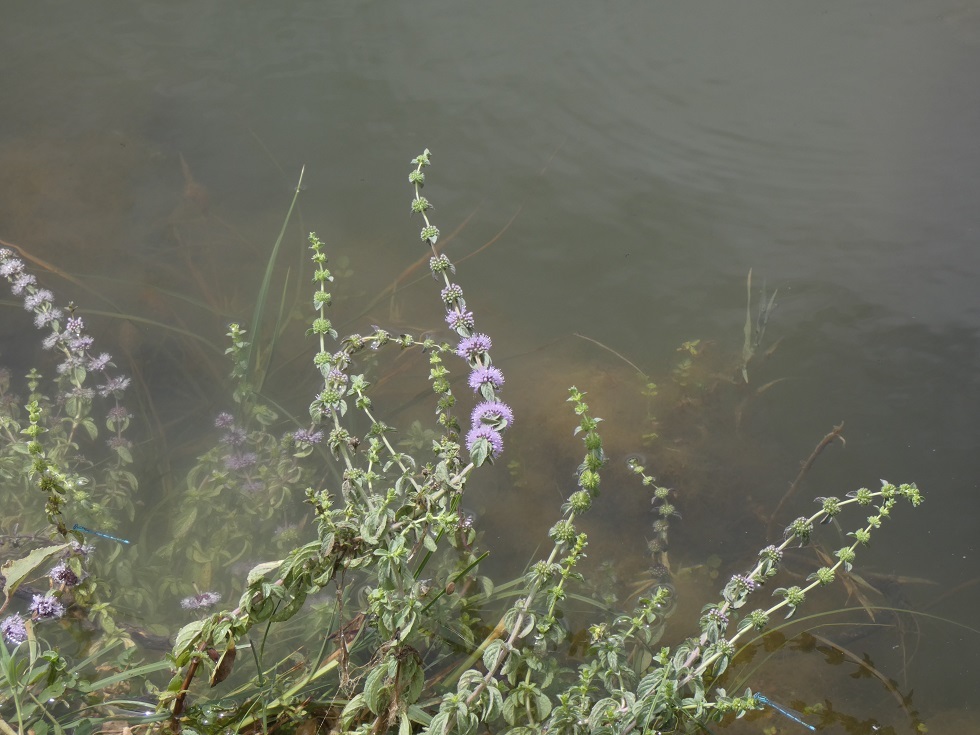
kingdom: Plantae
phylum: Tracheophyta
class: Magnoliopsida
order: Lamiales
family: Lamiaceae
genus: Mentha
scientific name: Mentha pulegium
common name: Pennyroyal
